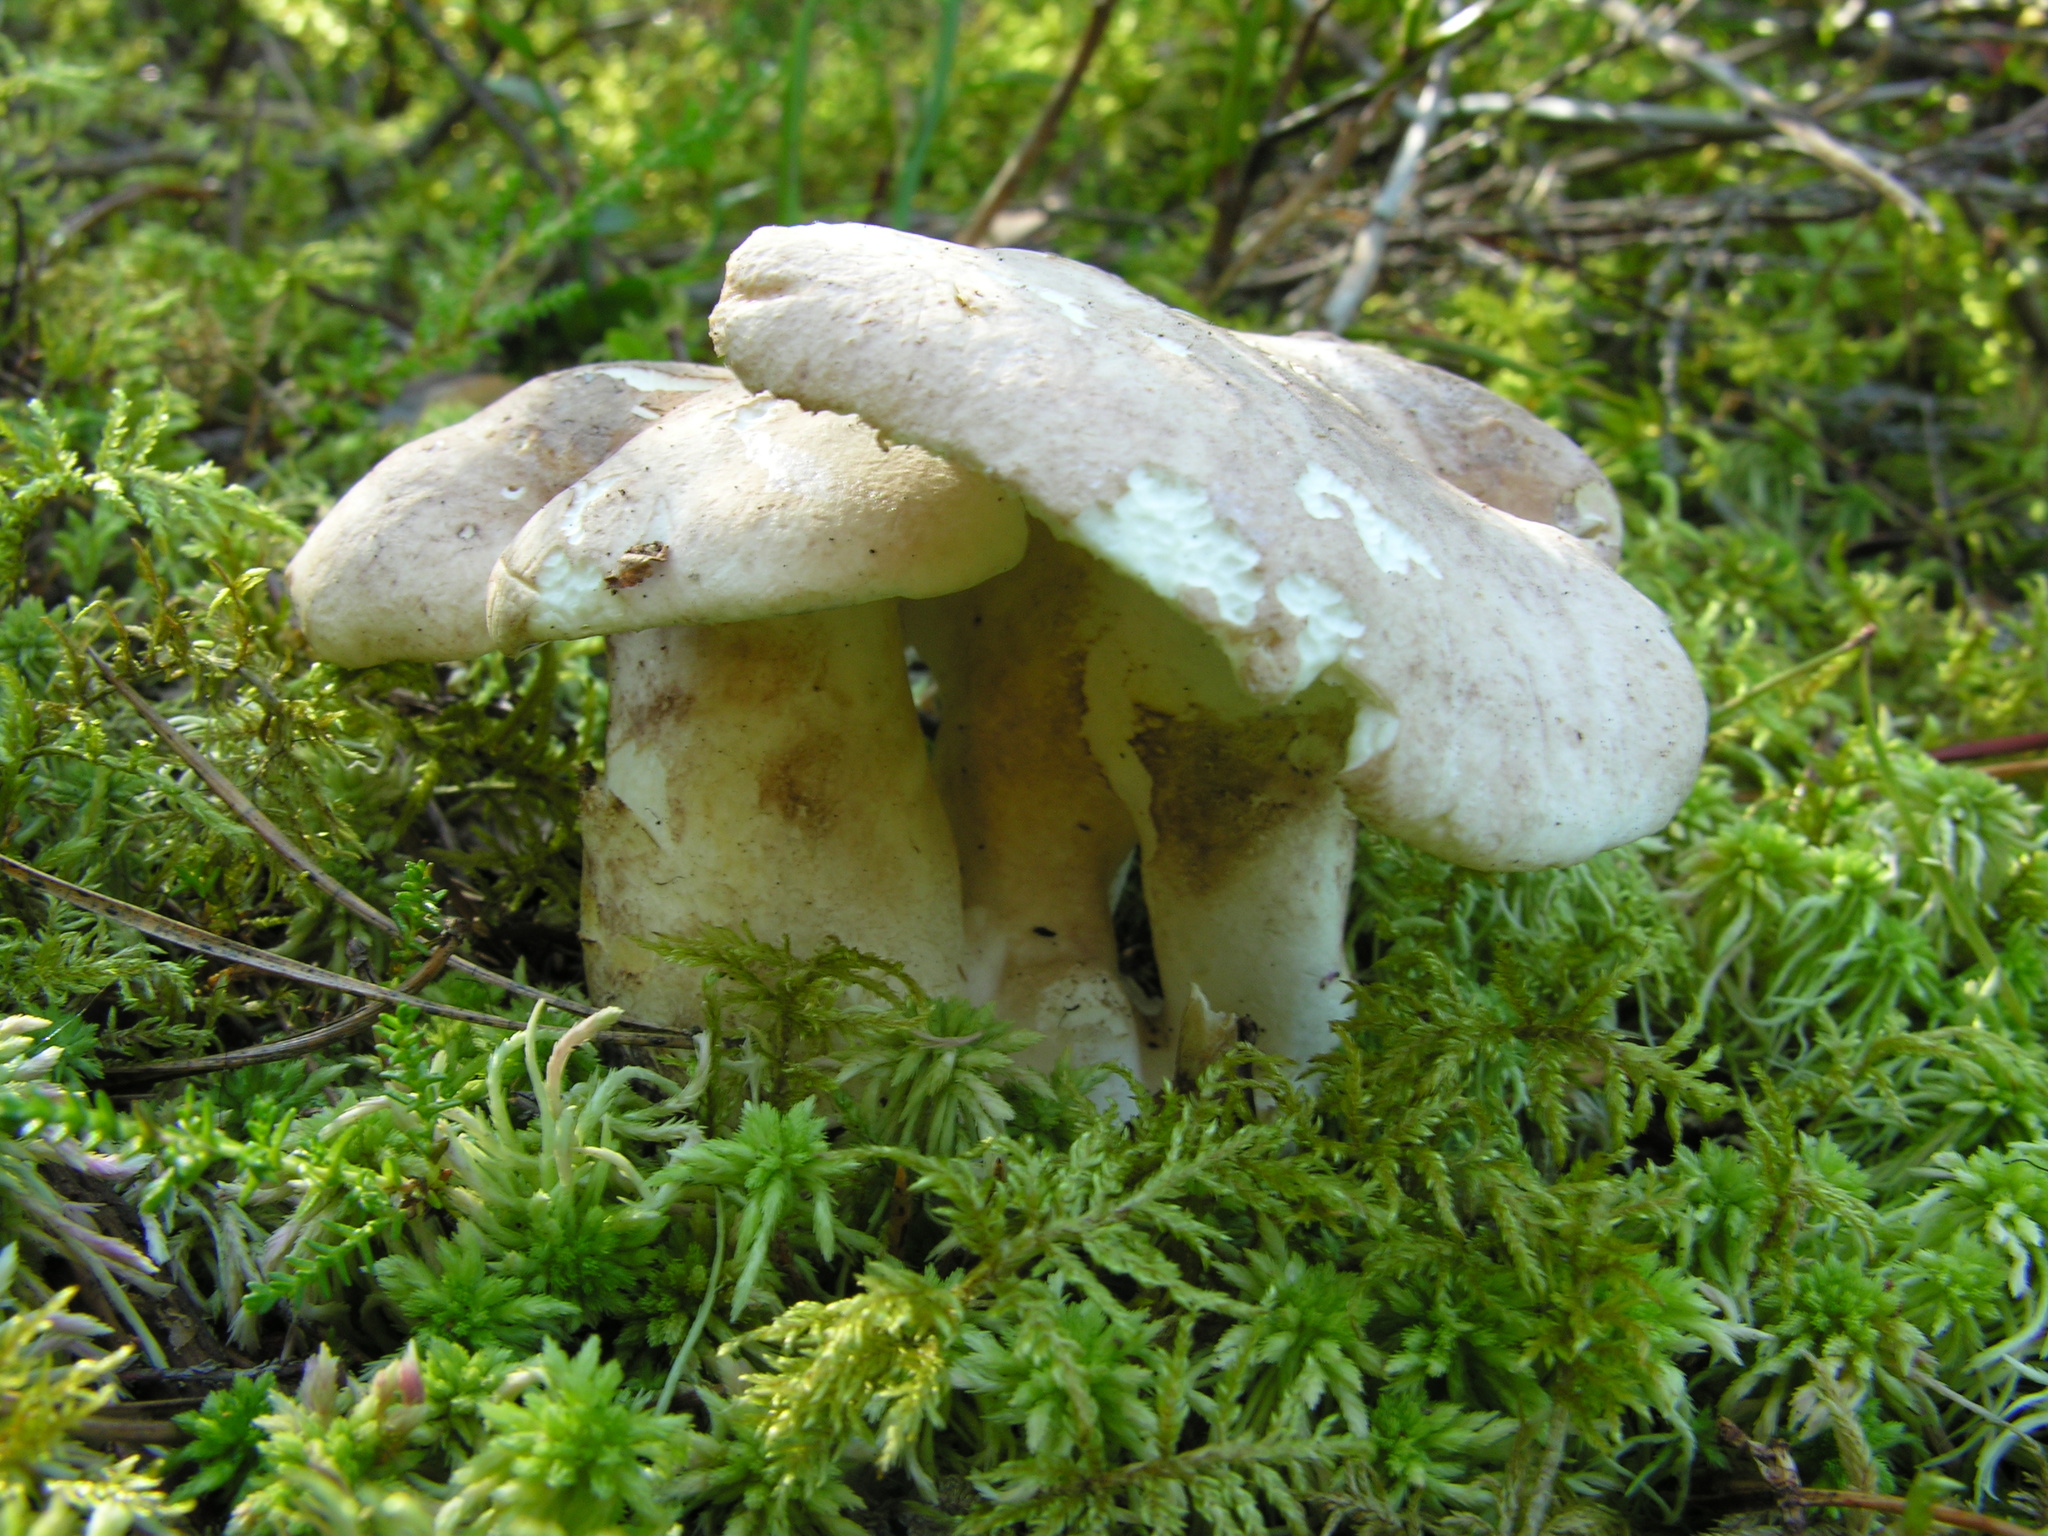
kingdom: Fungi
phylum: Basidiomycota
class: Agaricomycetes
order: Russulales
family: Albatrellaceae
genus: Albatrellus
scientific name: Albatrellus ovinus
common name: Forest lamb
